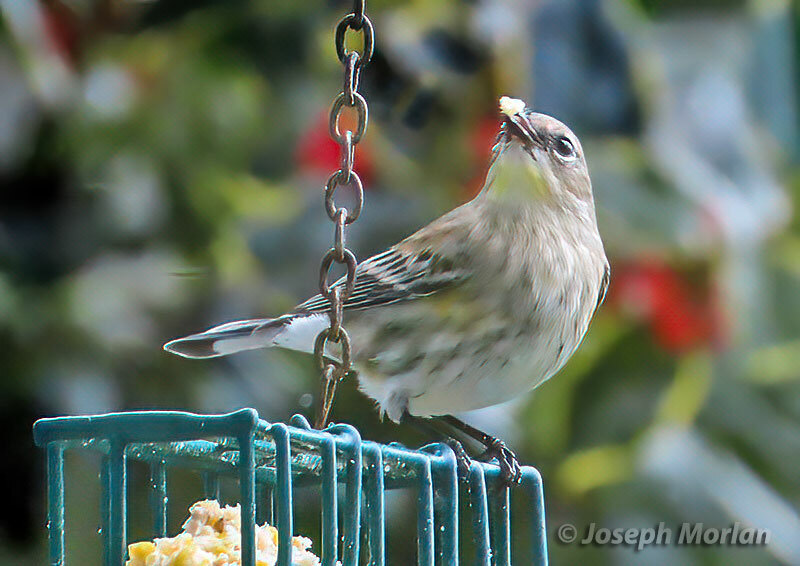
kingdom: Animalia
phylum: Chordata
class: Aves
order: Passeriformes
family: Parulidae
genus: Setophaga
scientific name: Setophaga coronata
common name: Myrtle warbler
